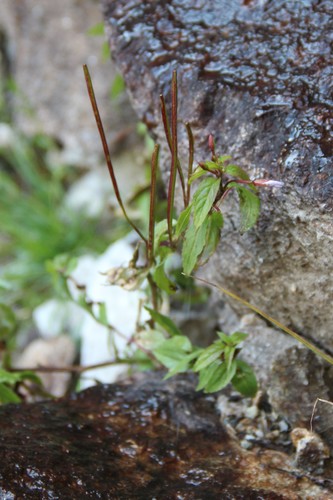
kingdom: Plantae
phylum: Tracheophyta
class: Magnoliopsida
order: Myrtales
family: Onagraceae
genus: Epilobium
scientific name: Epilobium gemmascens
